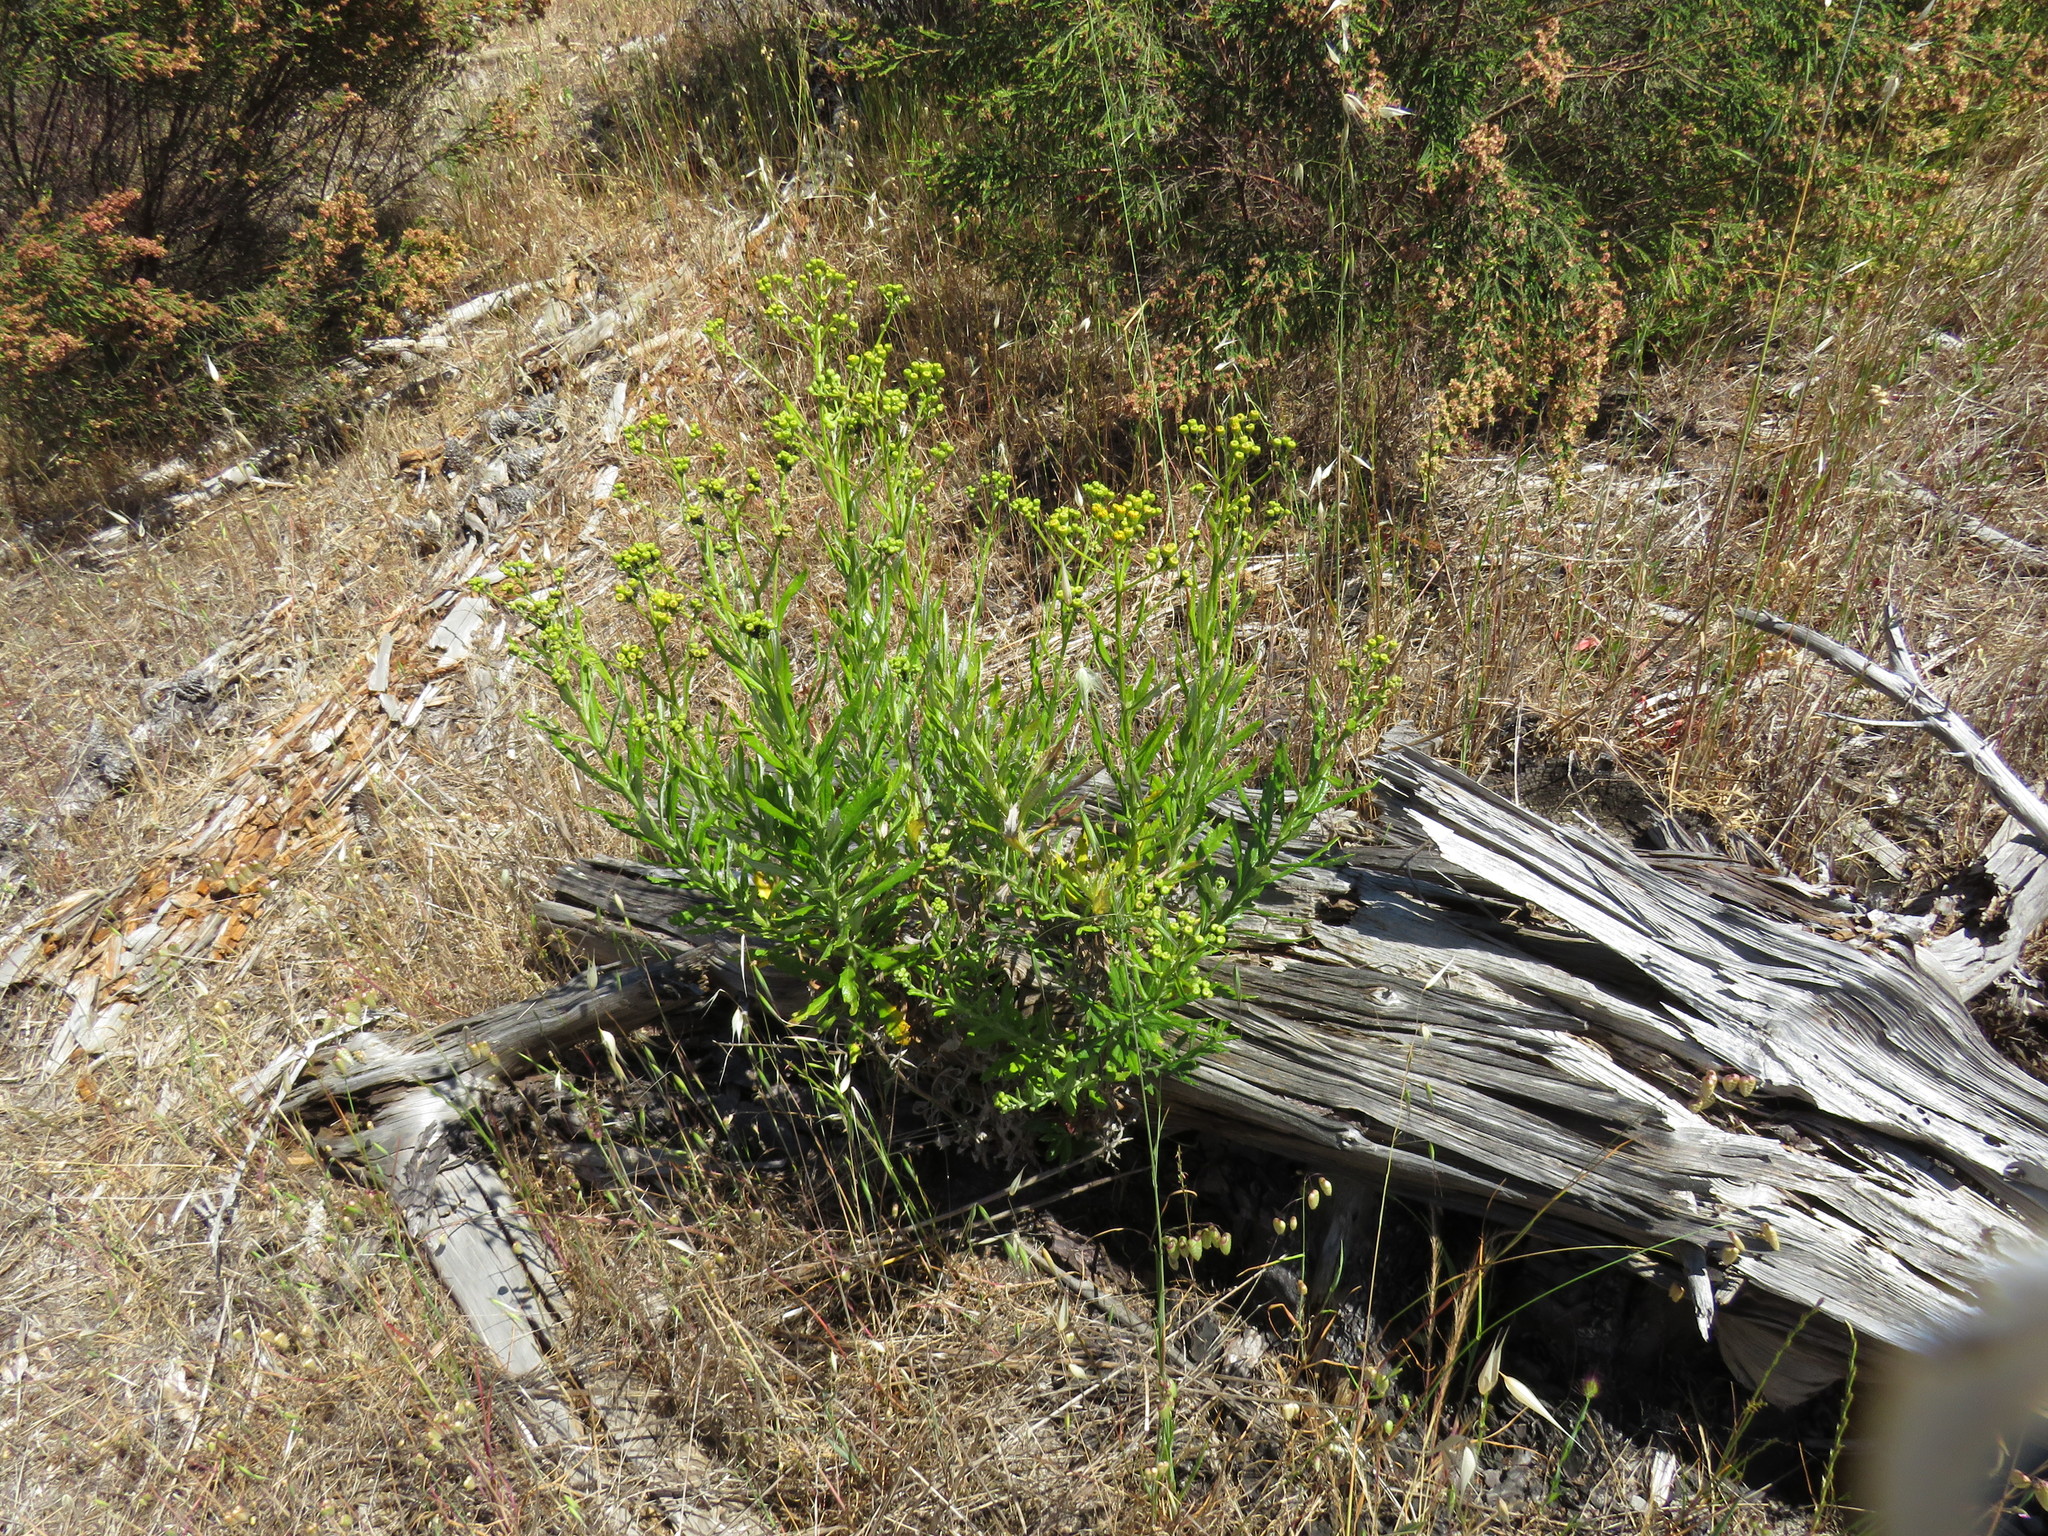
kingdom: Plantae
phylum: Tracheophyta
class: Magnoliopsida
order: Asterales
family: Asteraceae
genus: Senecio
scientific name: Senecio pterophorus
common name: Shoddy ragwort
